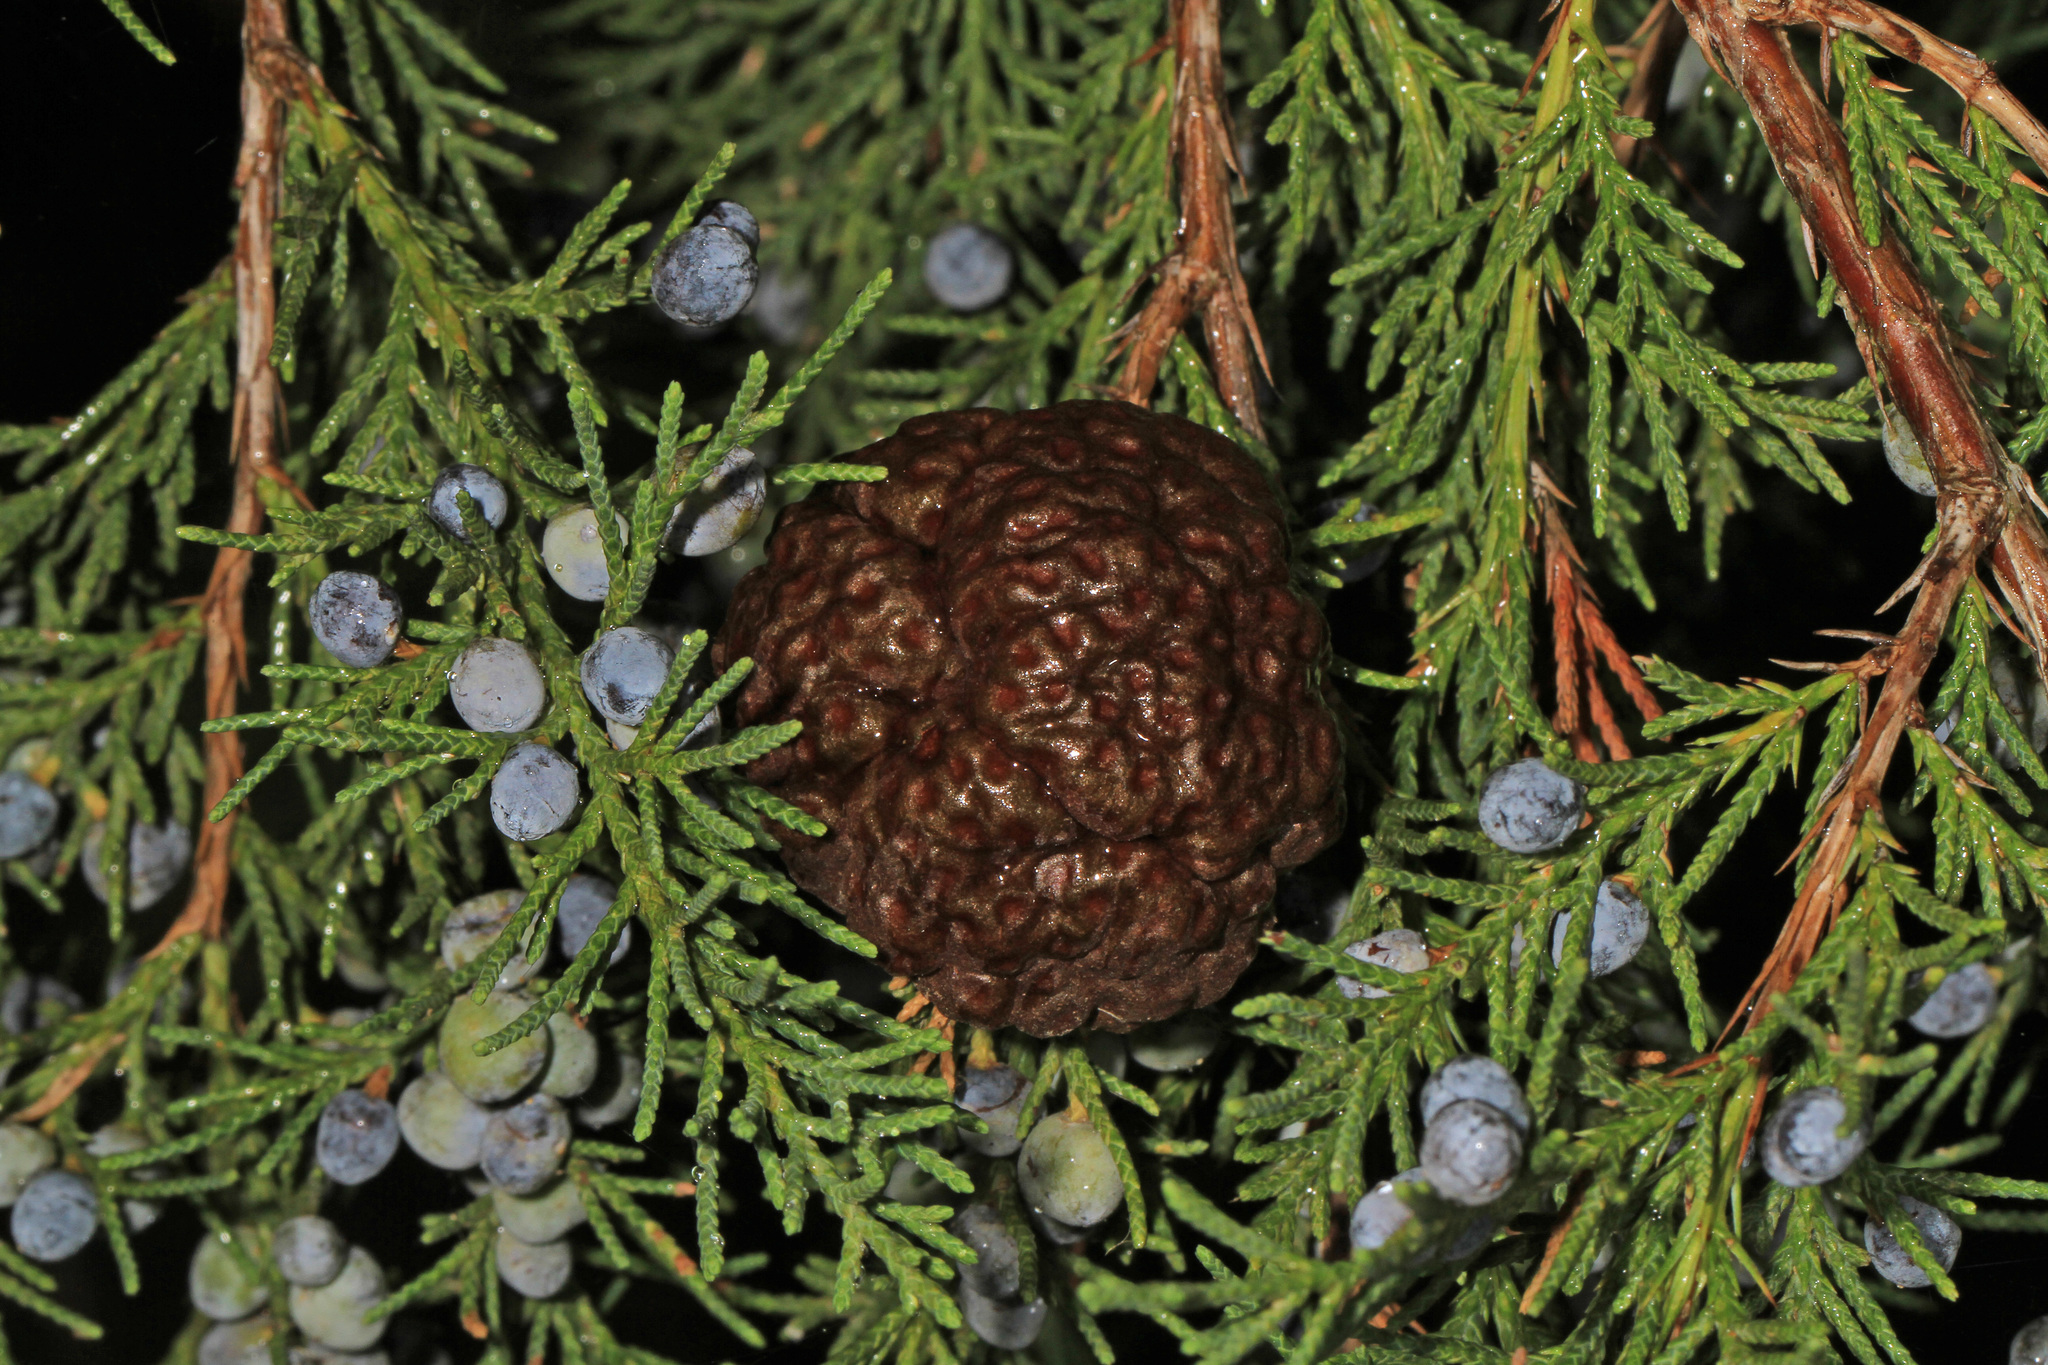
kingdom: Fungi
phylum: Basidiomycota
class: Pucciniomycetes
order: Pucciniales
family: Gymnosporangiaceae
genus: Gymnosporangium
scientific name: Gymnosporangium juniperi-virginianae
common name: Juniper-apple rust
